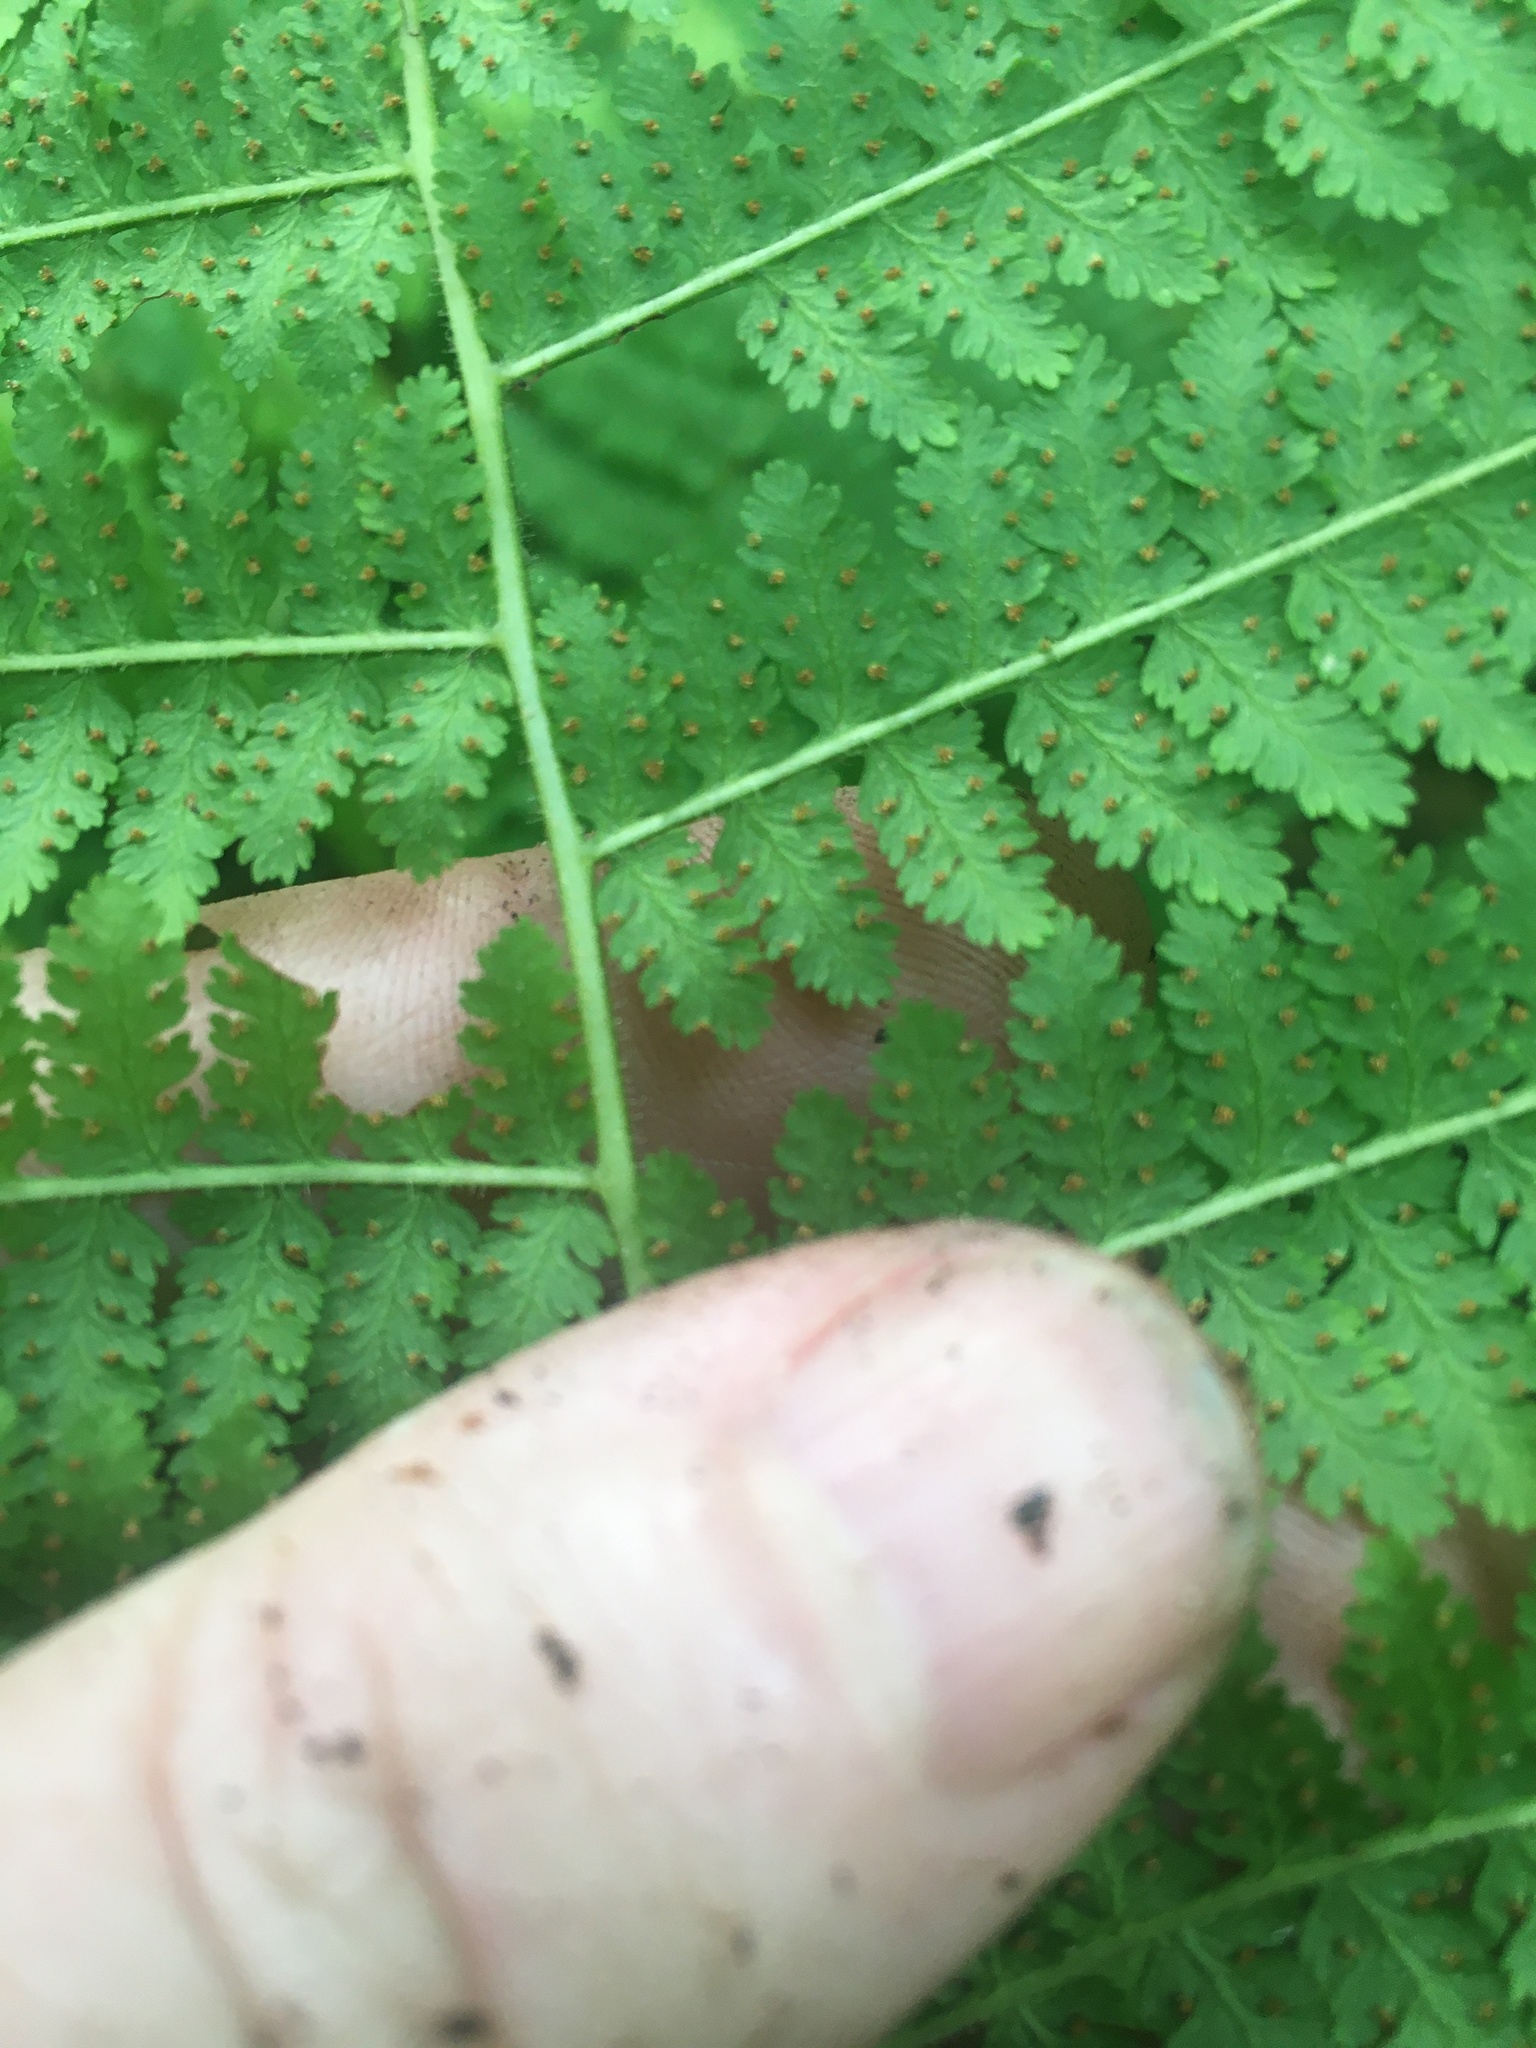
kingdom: Plantae
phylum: Tracheophyta
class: Polypodiopsida
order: Polypodiales
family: Dennstaedtiaceae
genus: Sitobolium
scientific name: Sitobolium punctilobum
